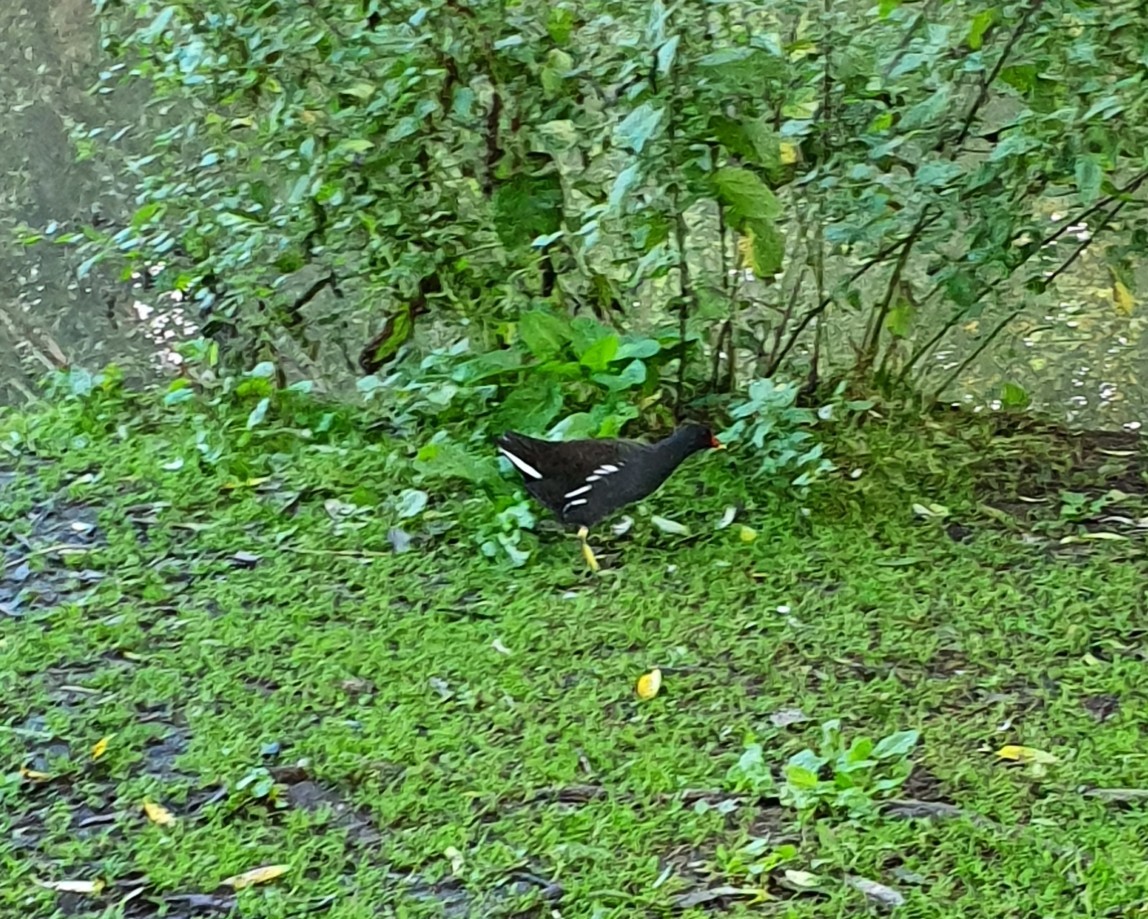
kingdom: Animalia
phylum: Chordata
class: Aves
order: Gruiformes
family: Rallidae
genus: Gallinula
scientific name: Gallinula chloropus
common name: Common moorhen
